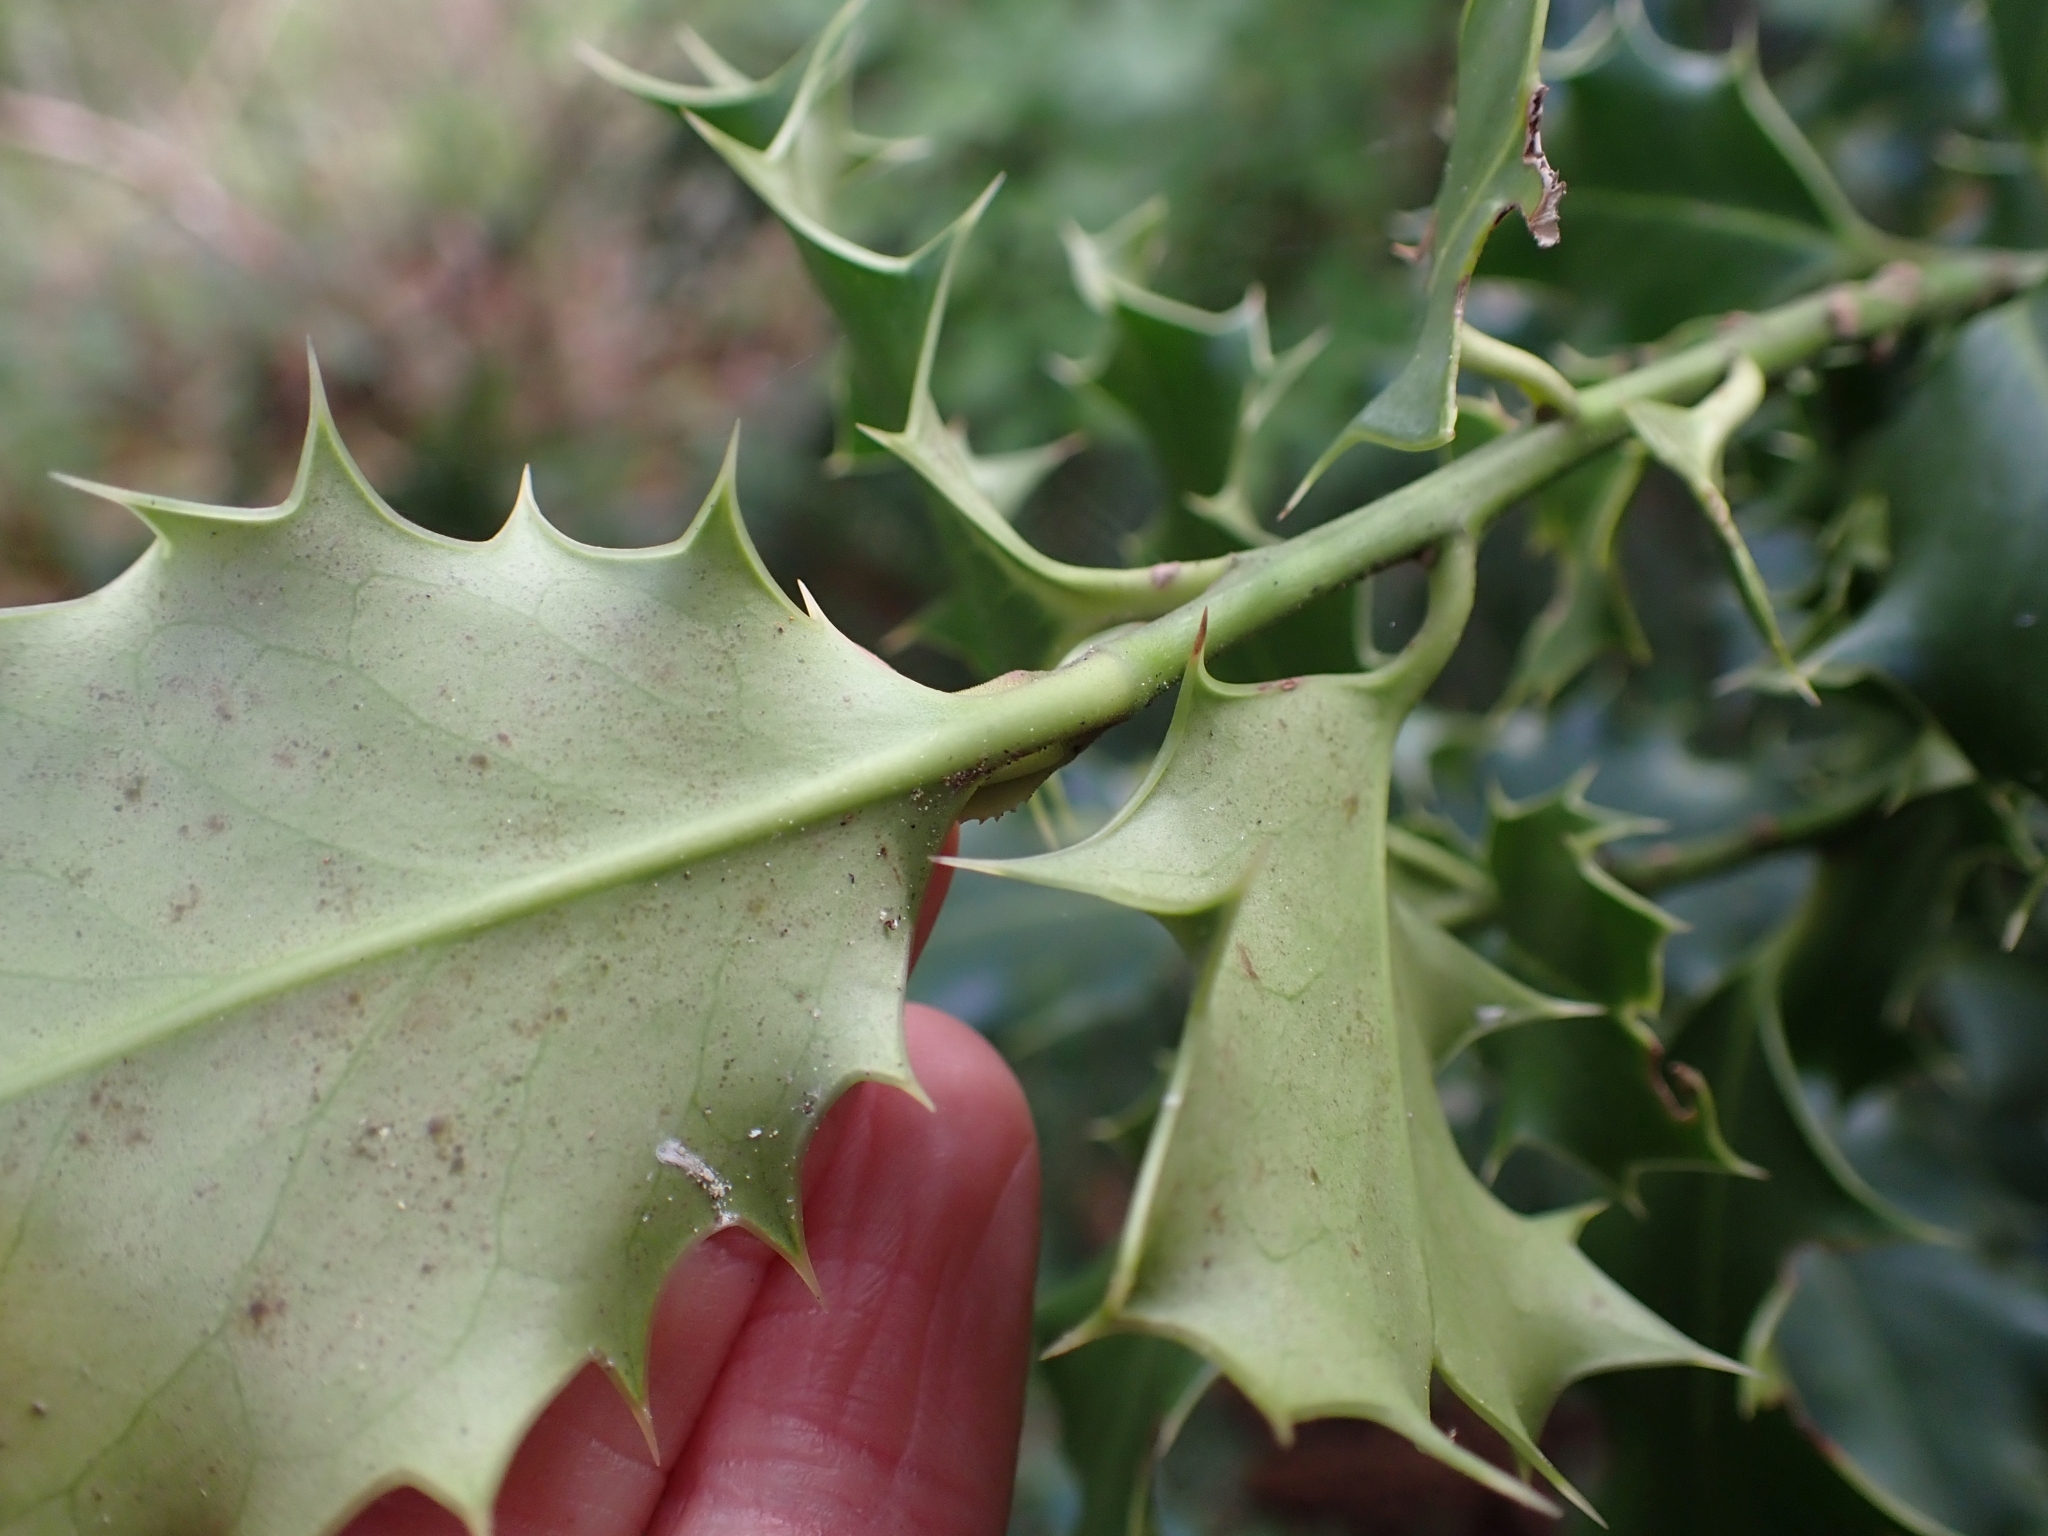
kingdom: Plantae
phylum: Tracheophyta
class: Magnoliopsida
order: Aquifoliales
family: Aquifoliaceae
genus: Ilex
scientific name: Ilex aquifolium
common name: English holly
